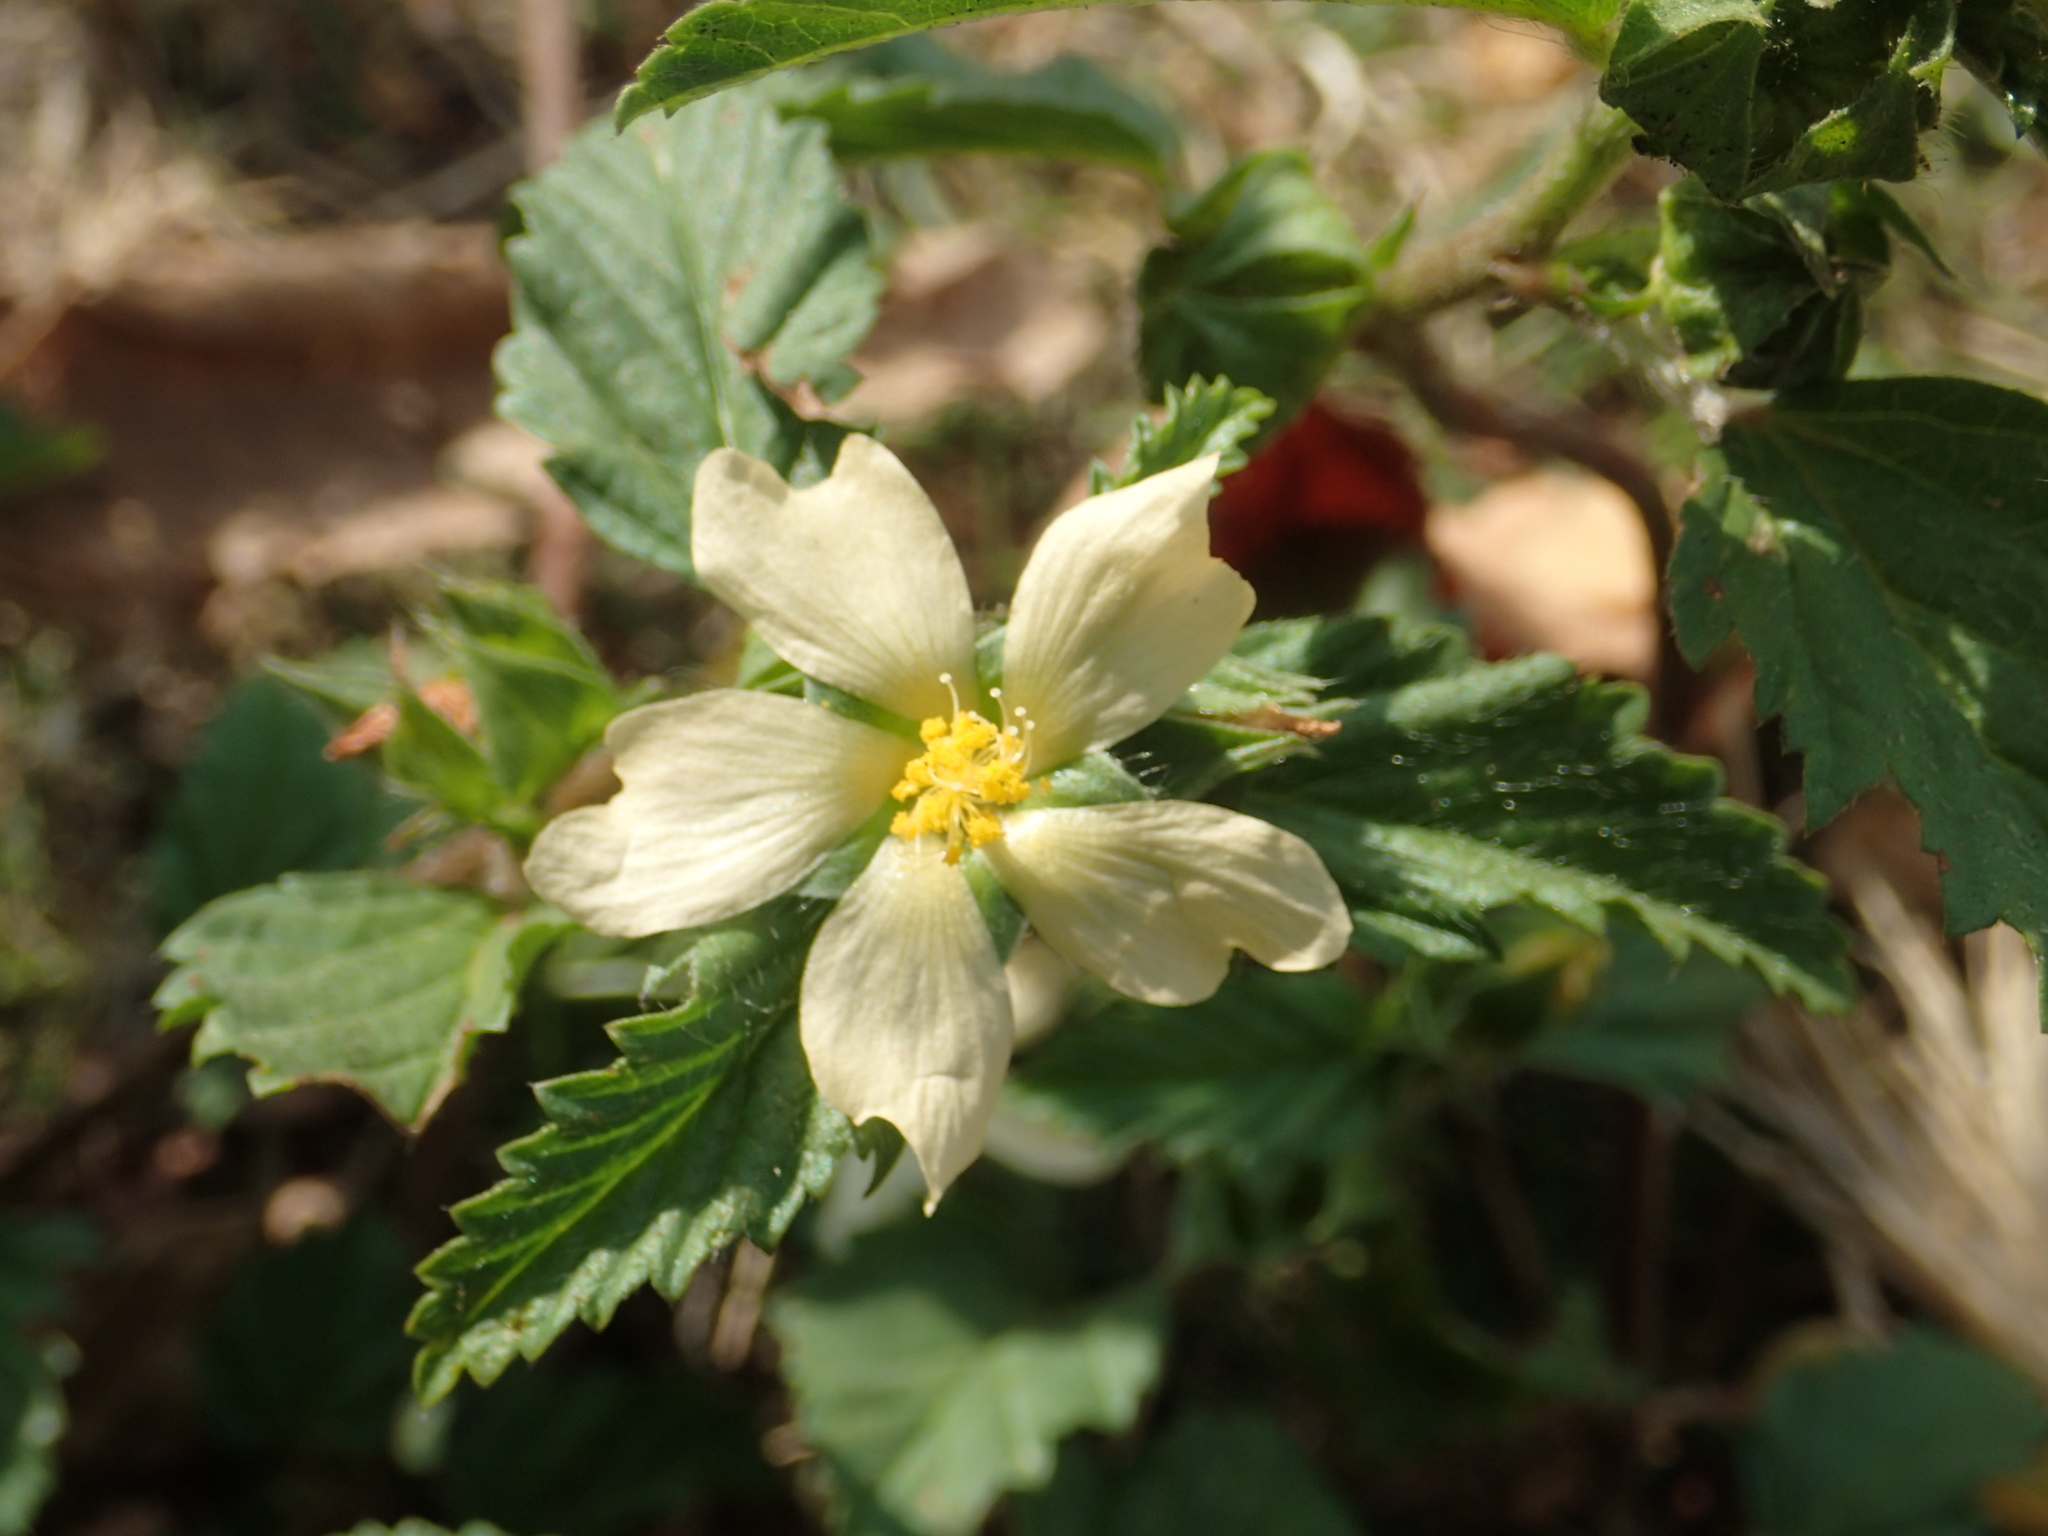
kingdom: Plantae
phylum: Tracheophyta
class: Magnoliopsida
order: Malvales
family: Malvaceae
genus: Malvastrum
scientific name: Malvastrum coromandelianum
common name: Threelobe false mallow
